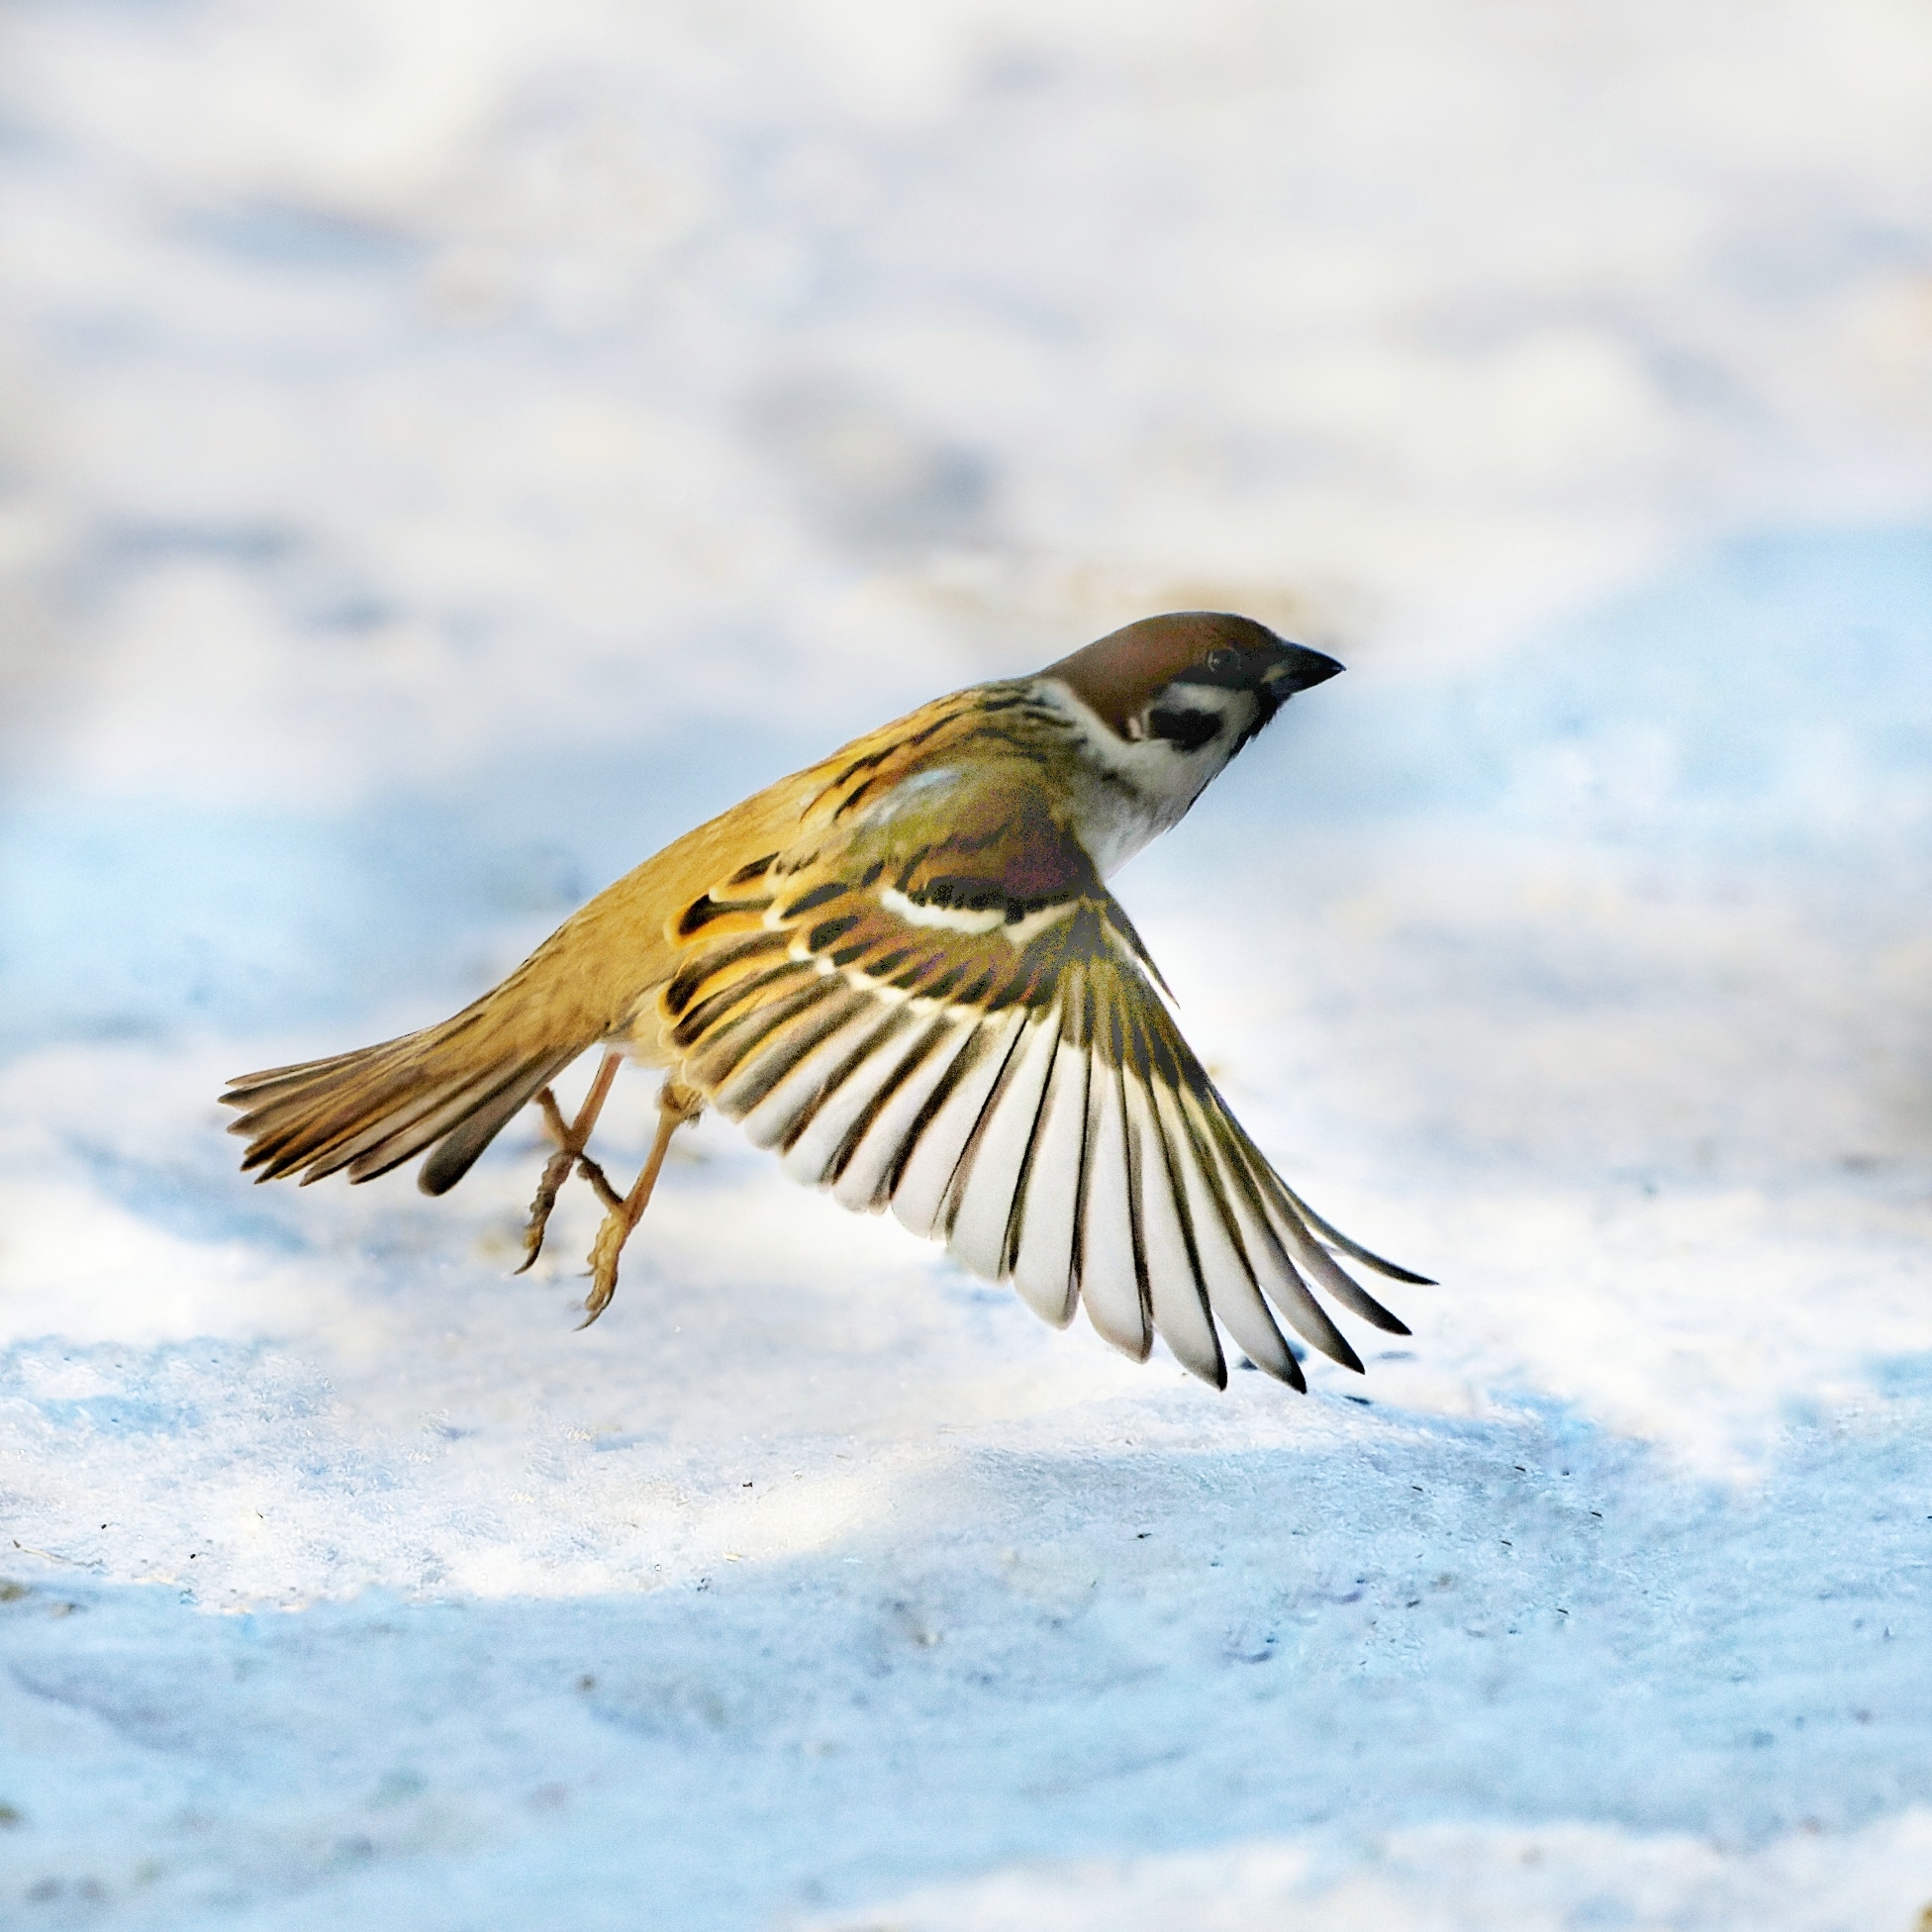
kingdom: Animalia
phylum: Chordata
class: Aves
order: Passeriformes
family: Passeridae
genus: Passer
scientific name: Passer montanus
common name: Eurasian tree sparrow
